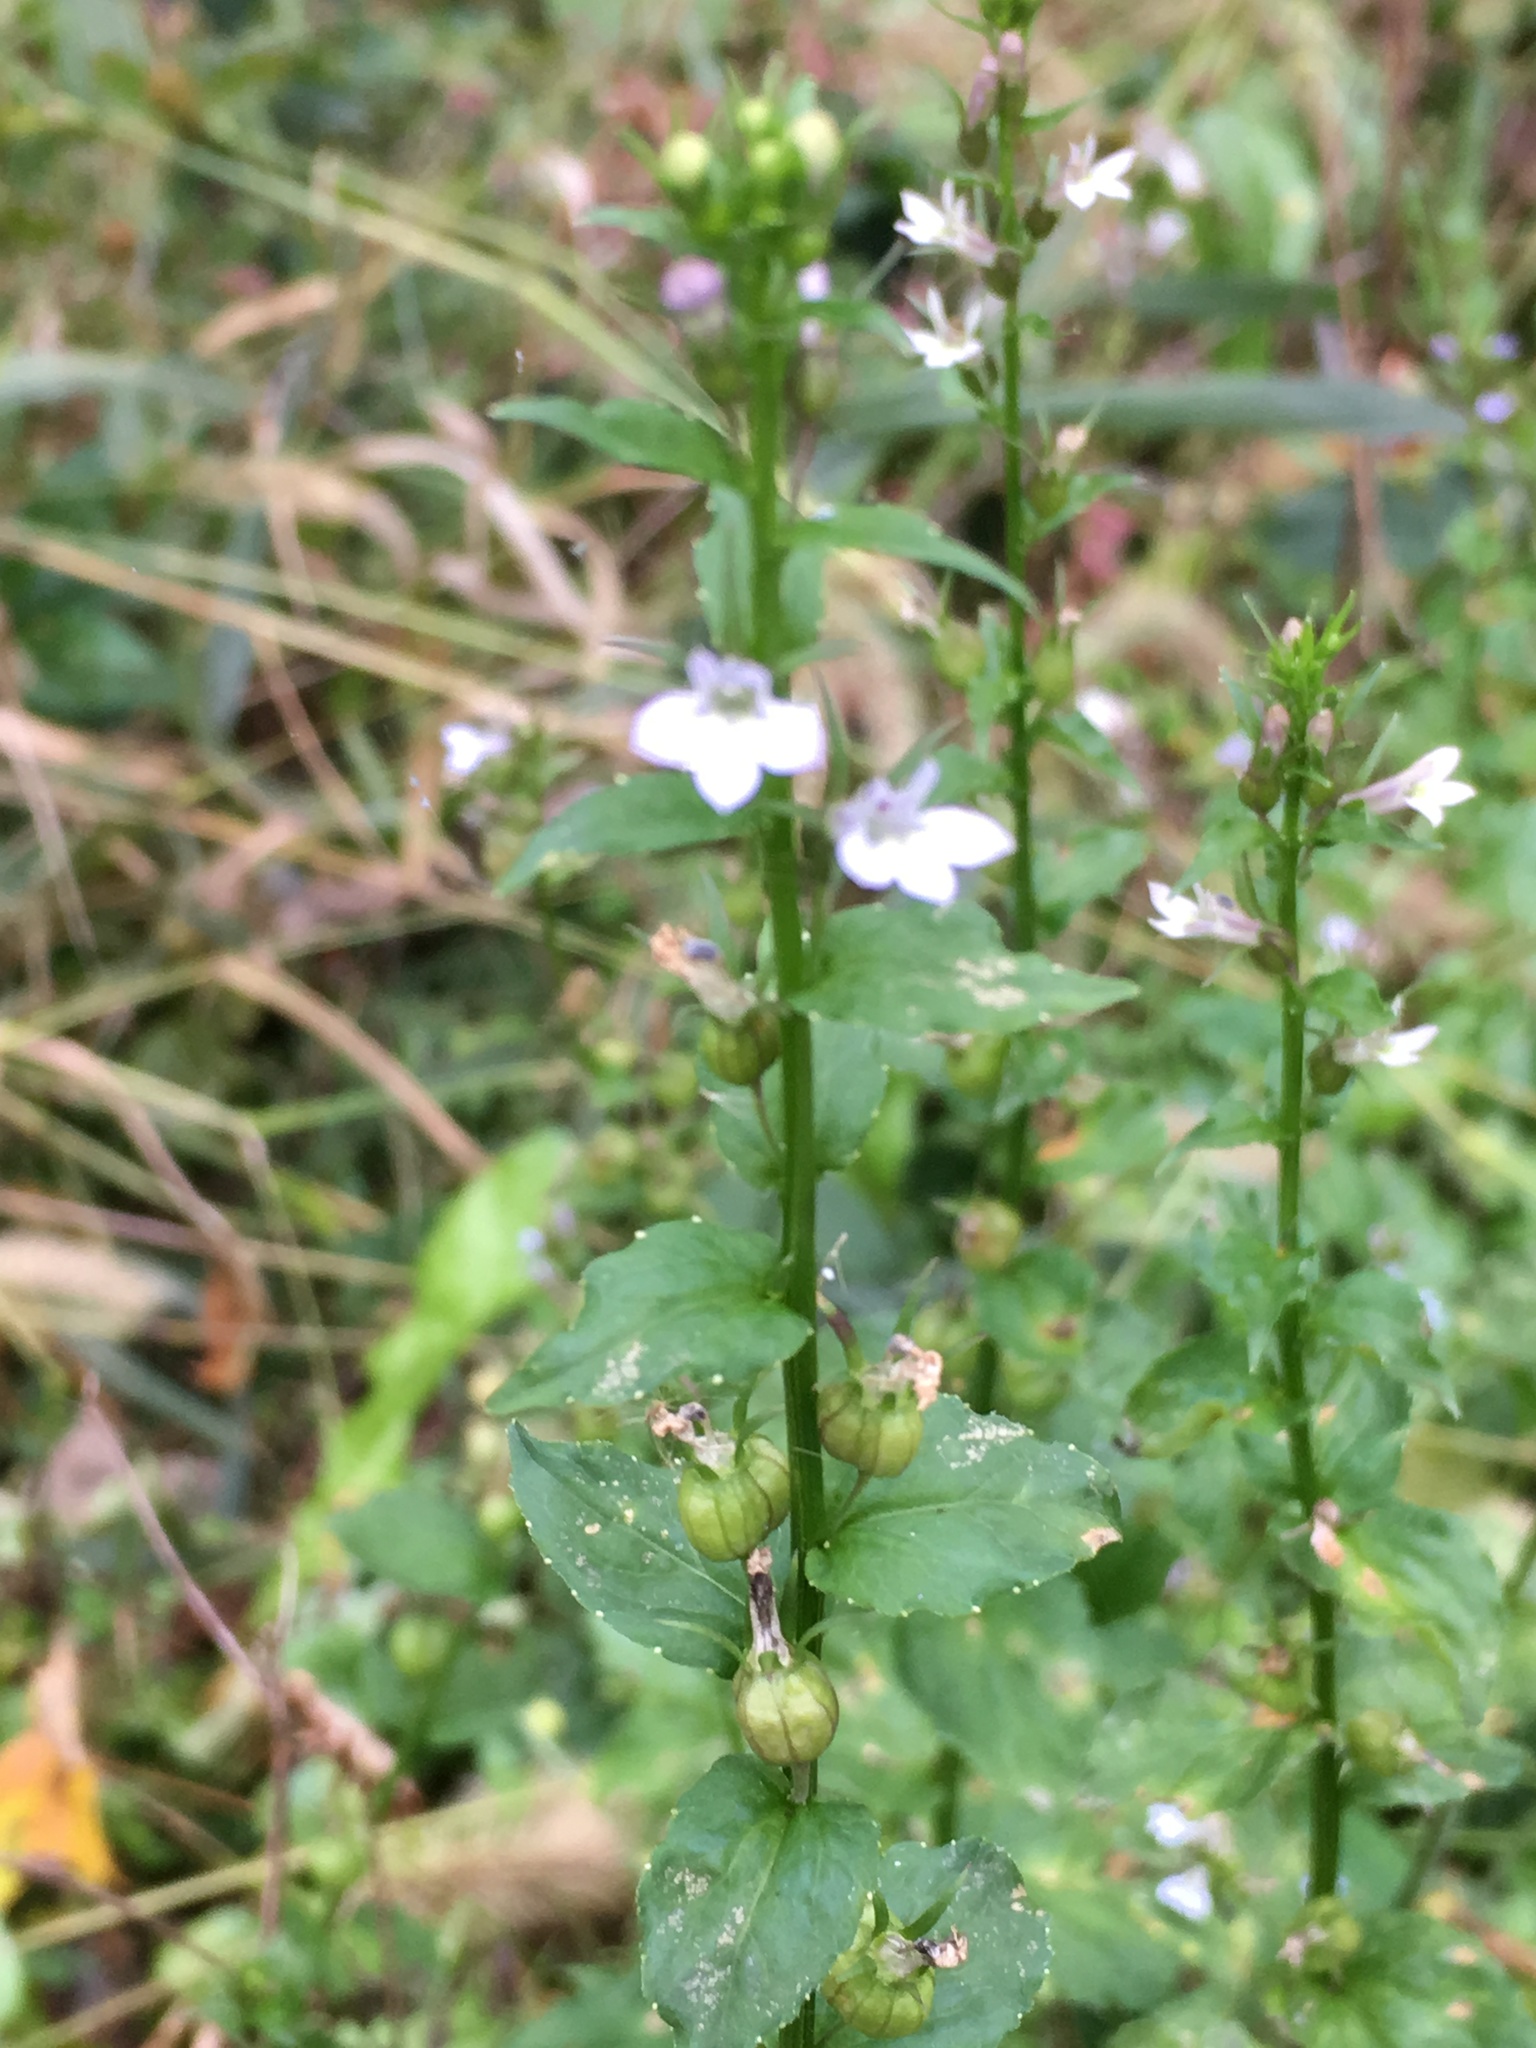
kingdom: Plantae
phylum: Tracheophyta
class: Magnoliopsida
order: Asterales
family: Campanulaceae
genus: Lobelia
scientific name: Lobelia inflata
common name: Indian tobacco
